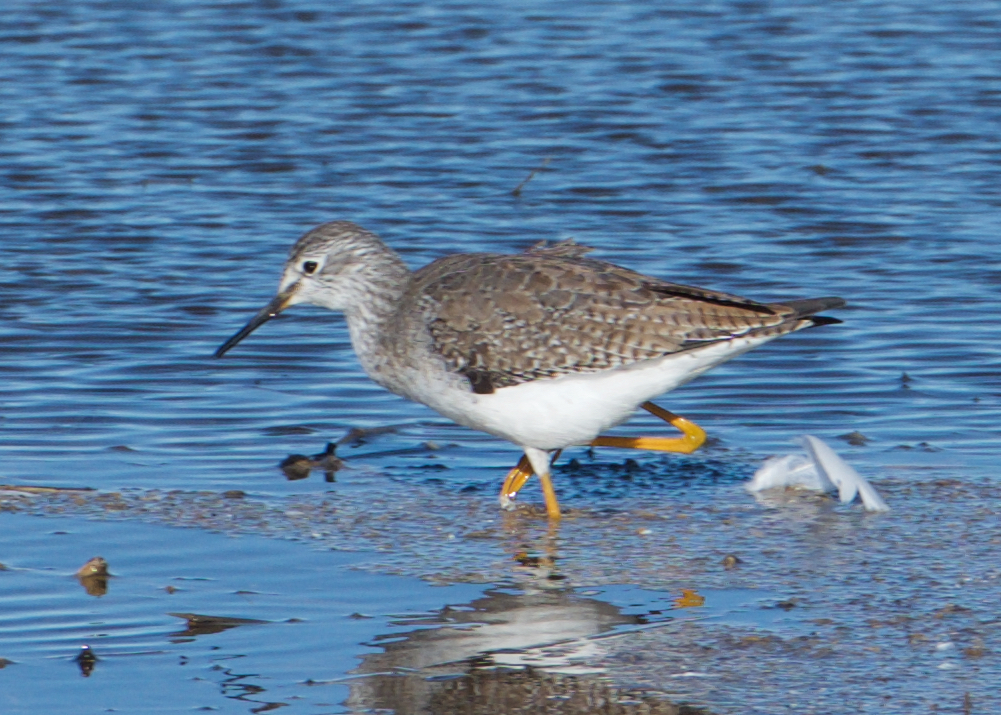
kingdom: Animalia
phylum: Chordata
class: Aves
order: Charadriiformes
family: Scolopacidae
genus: Tringa
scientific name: Tringa melanoleuca
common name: Greater yellowlegs
